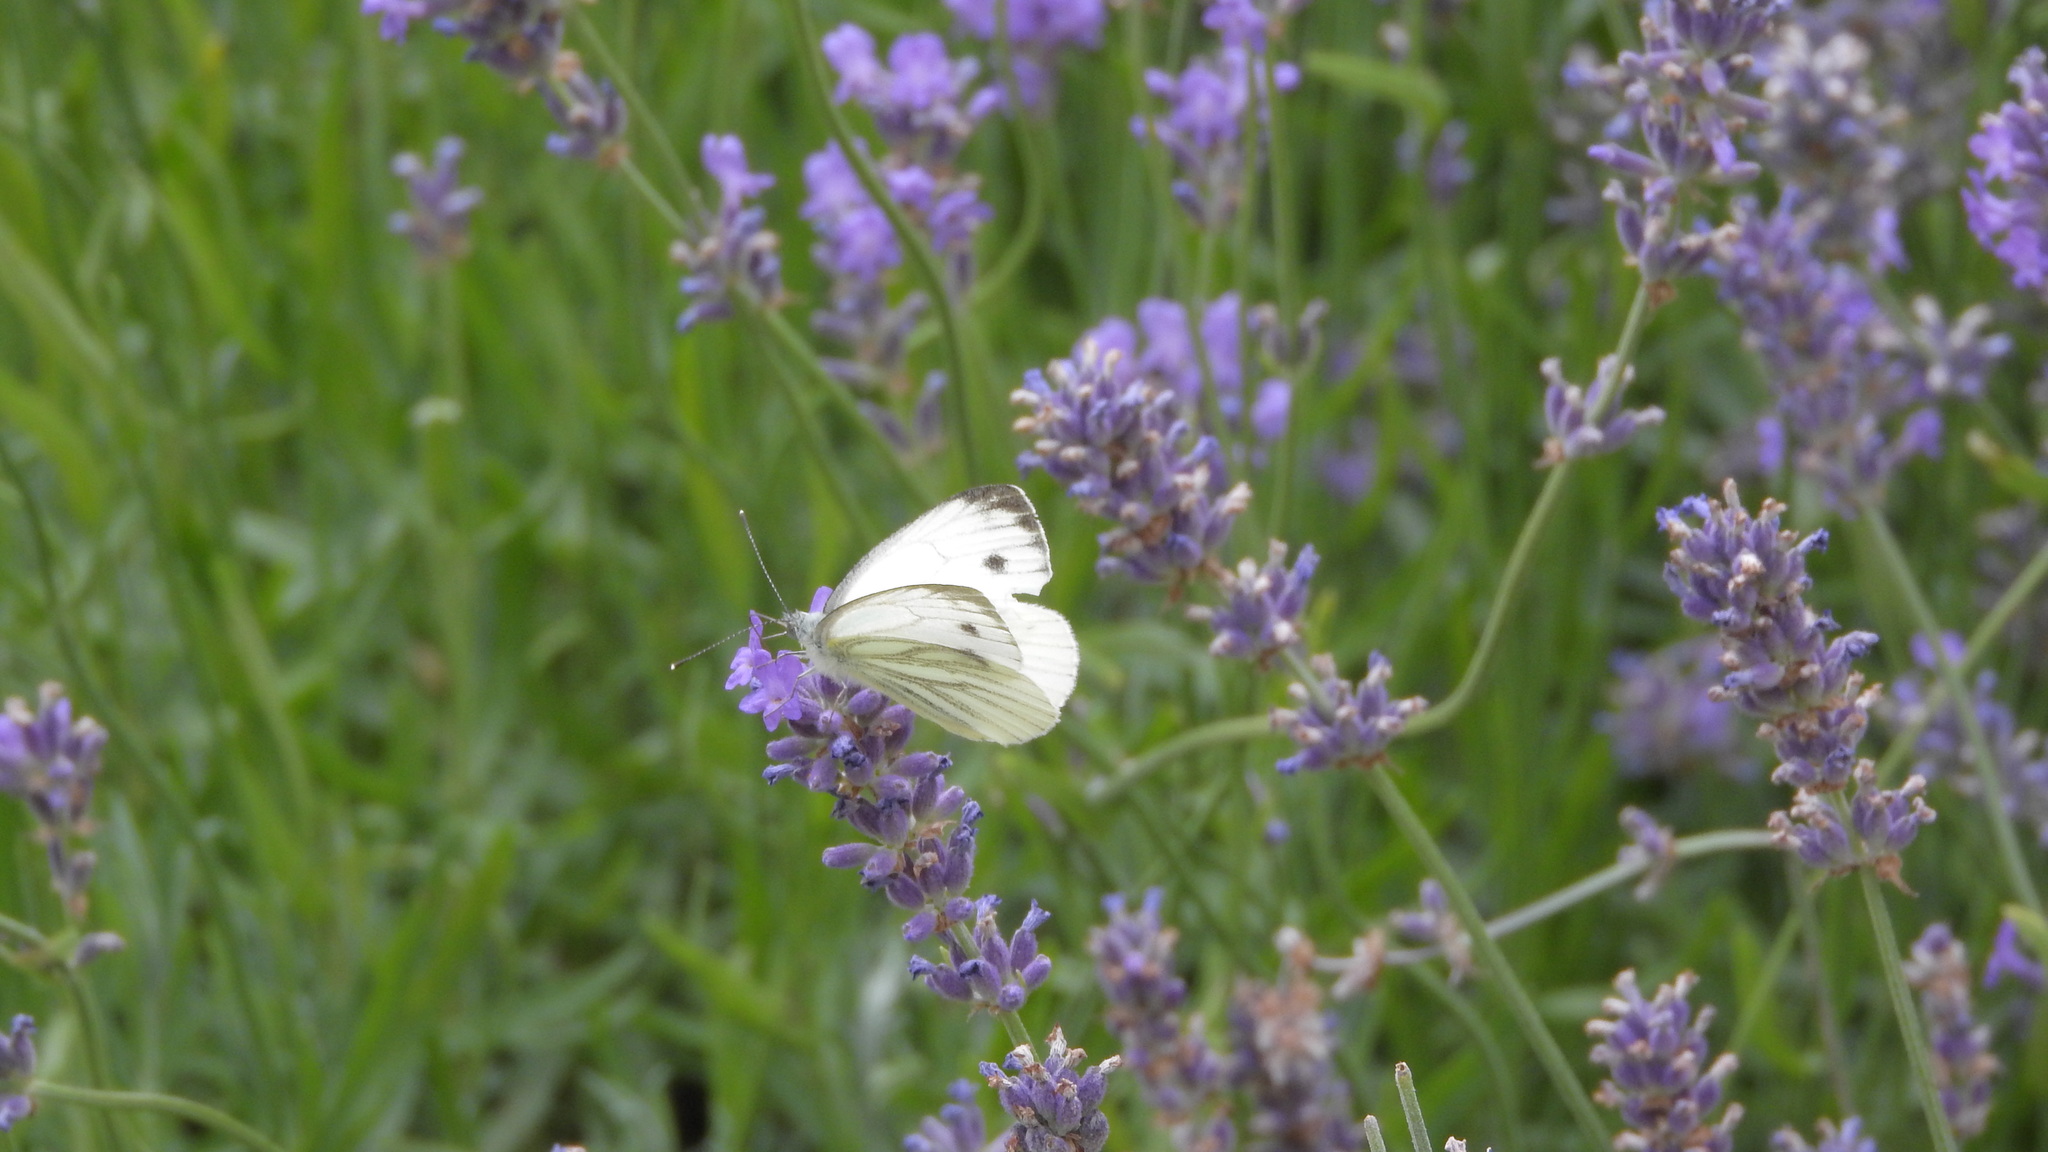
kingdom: Animalia
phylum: Arthropoda
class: Insecta
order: Lepidoptera
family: Pieridae
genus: Pieris
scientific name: Pieris napi
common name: Green-veined white
